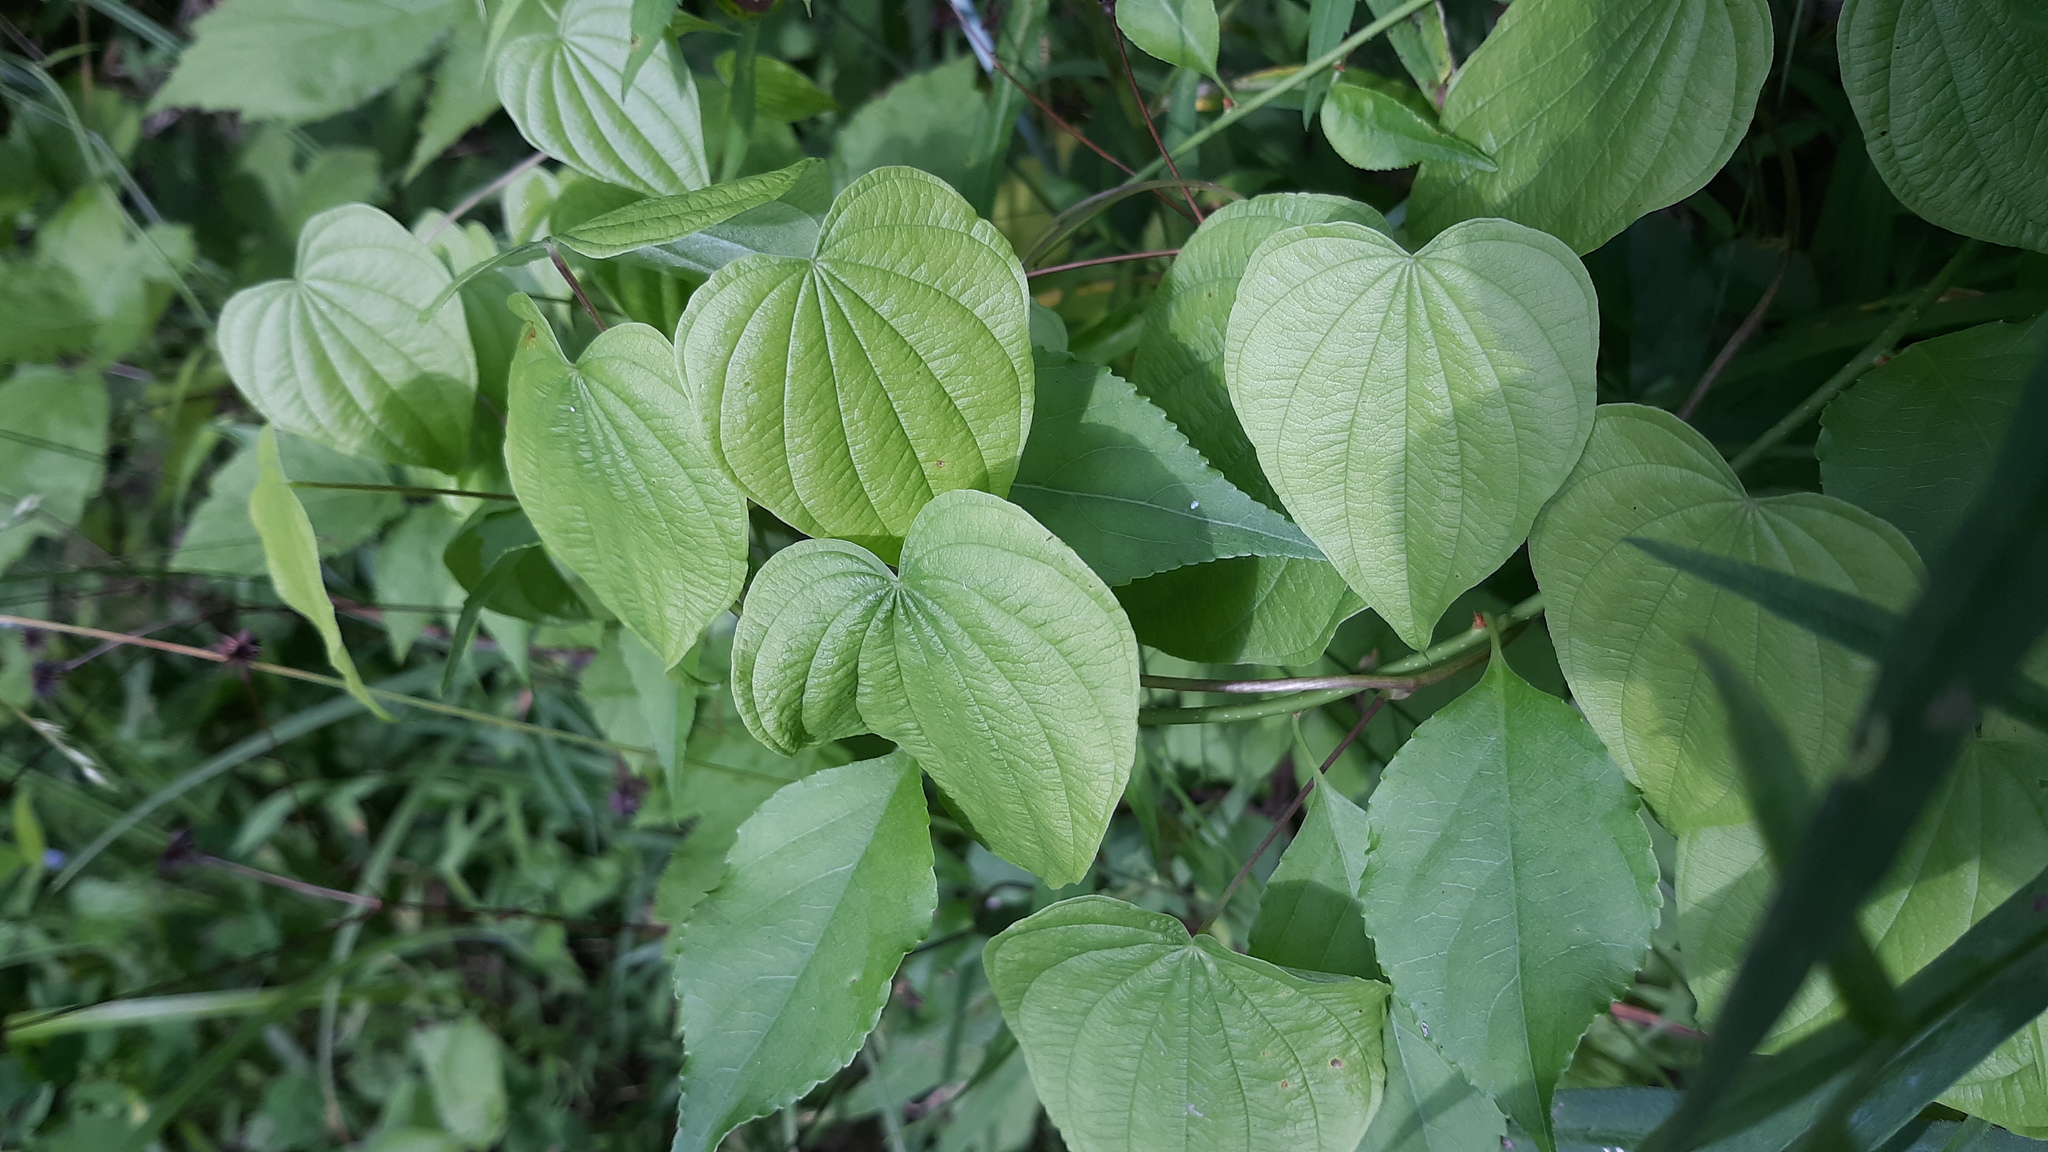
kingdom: Plantae
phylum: Tracheophyta
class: Liliopsida
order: Dioscoreales
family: Dioscoreaceae
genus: Dioscorea
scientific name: Dioscorea villosa
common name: Wild yam
